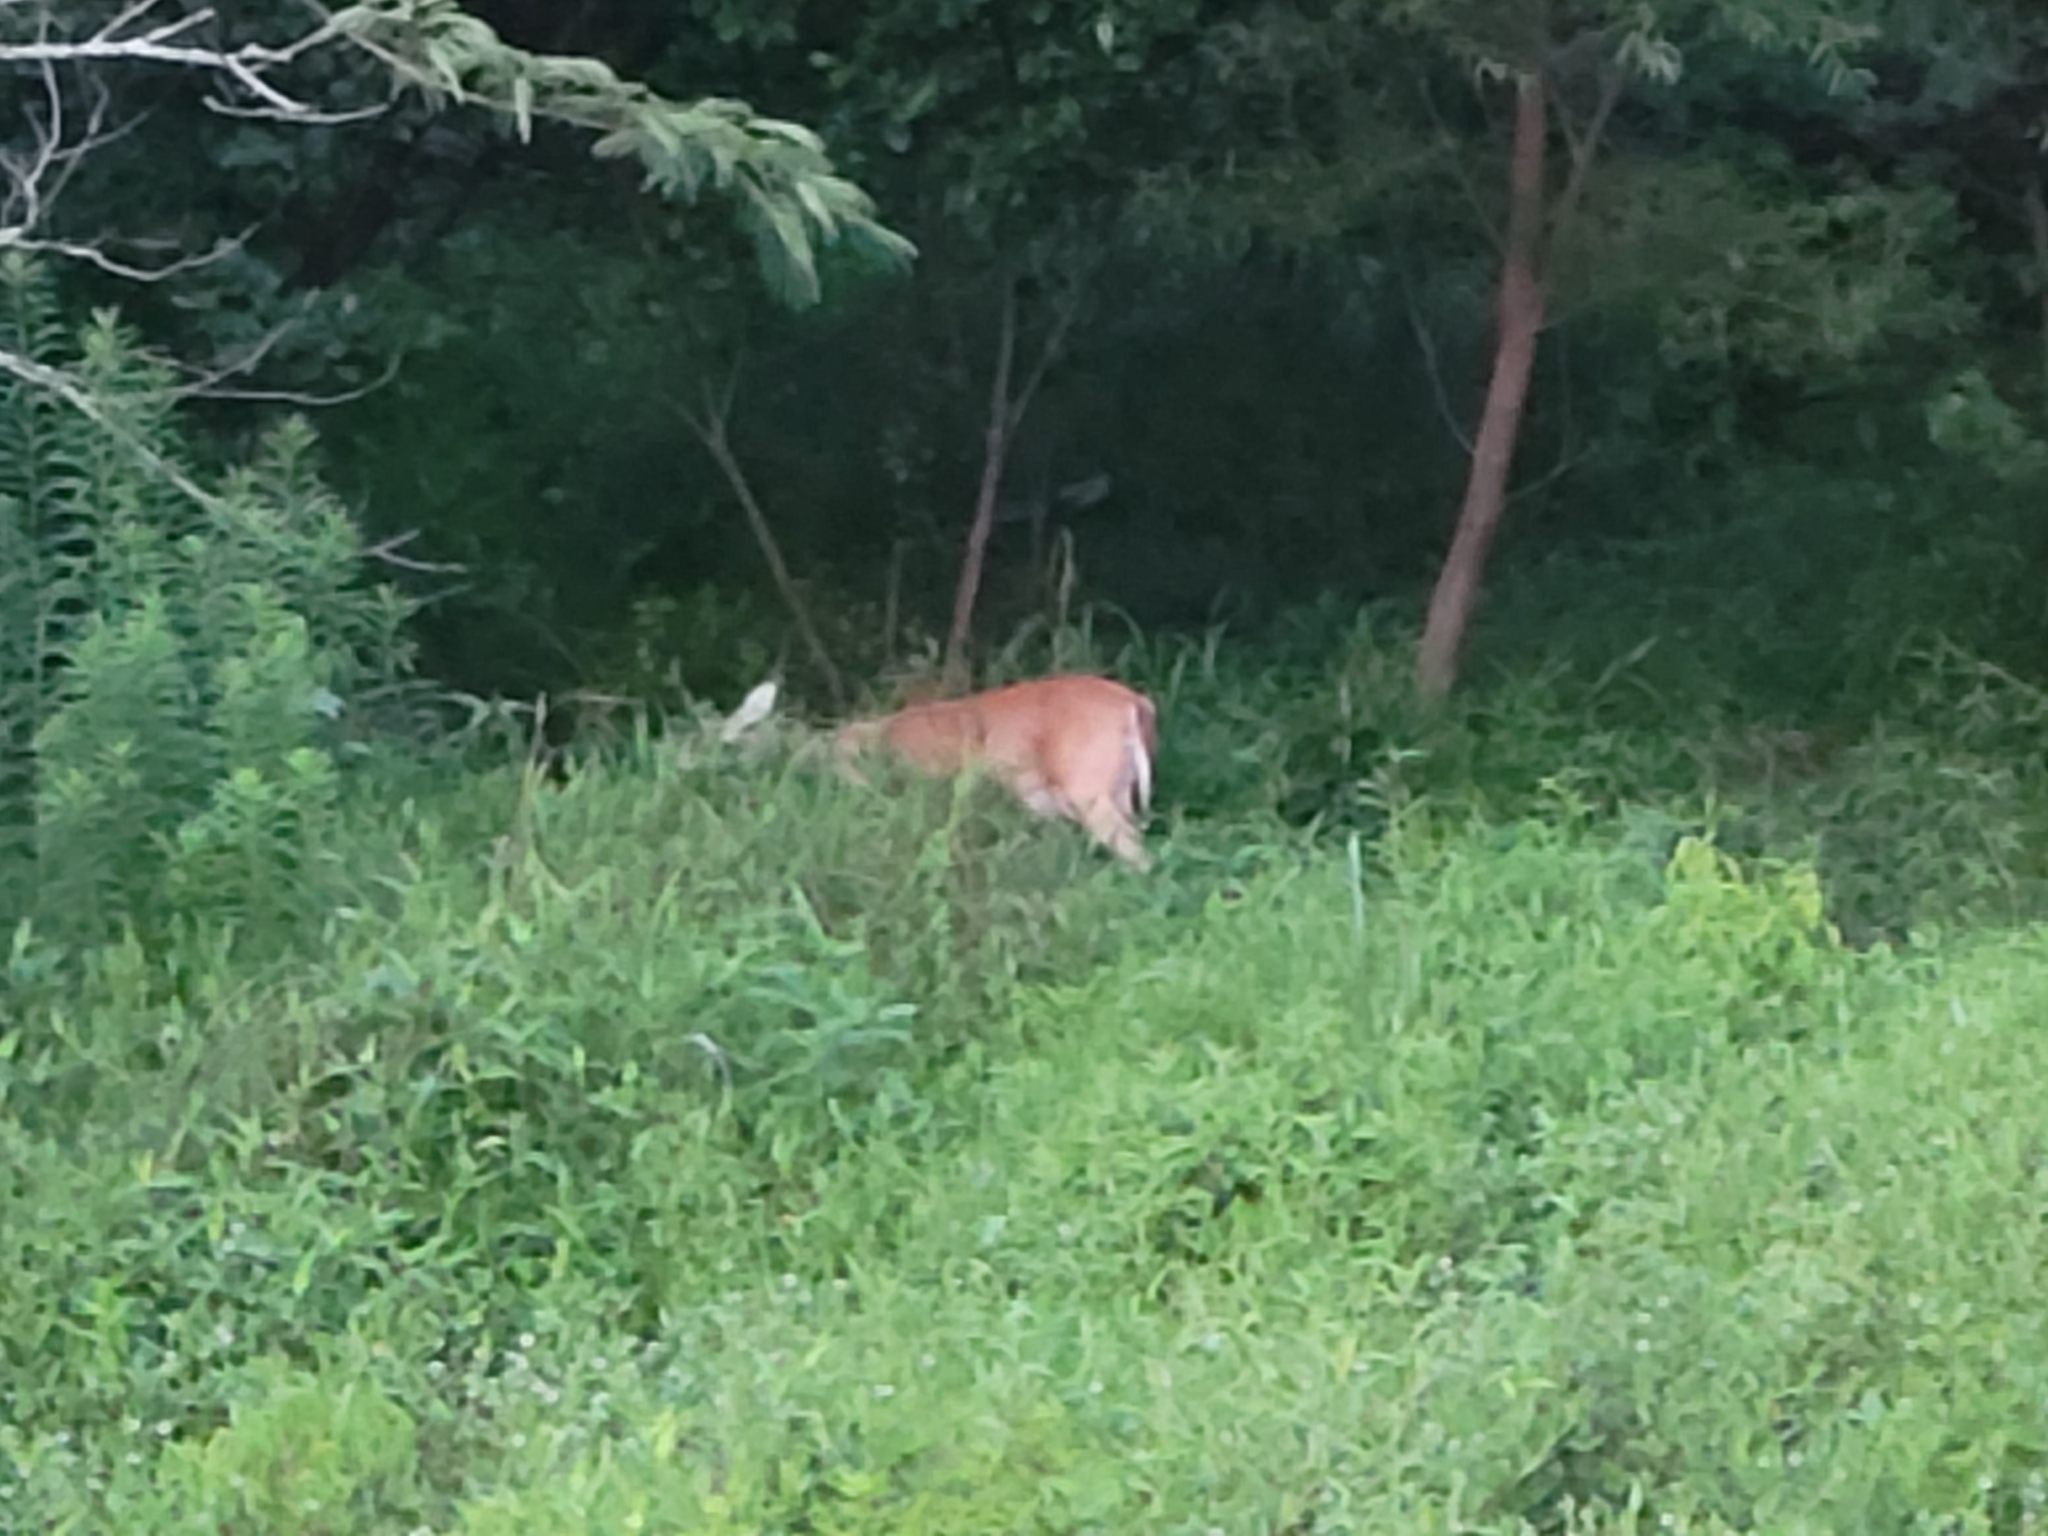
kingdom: Animalia
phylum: Chordata
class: Mammalia
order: Artiodactyla
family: Cervidae
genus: Odocoileus
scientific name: Odocoileus virginianus
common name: White-tailed deer
